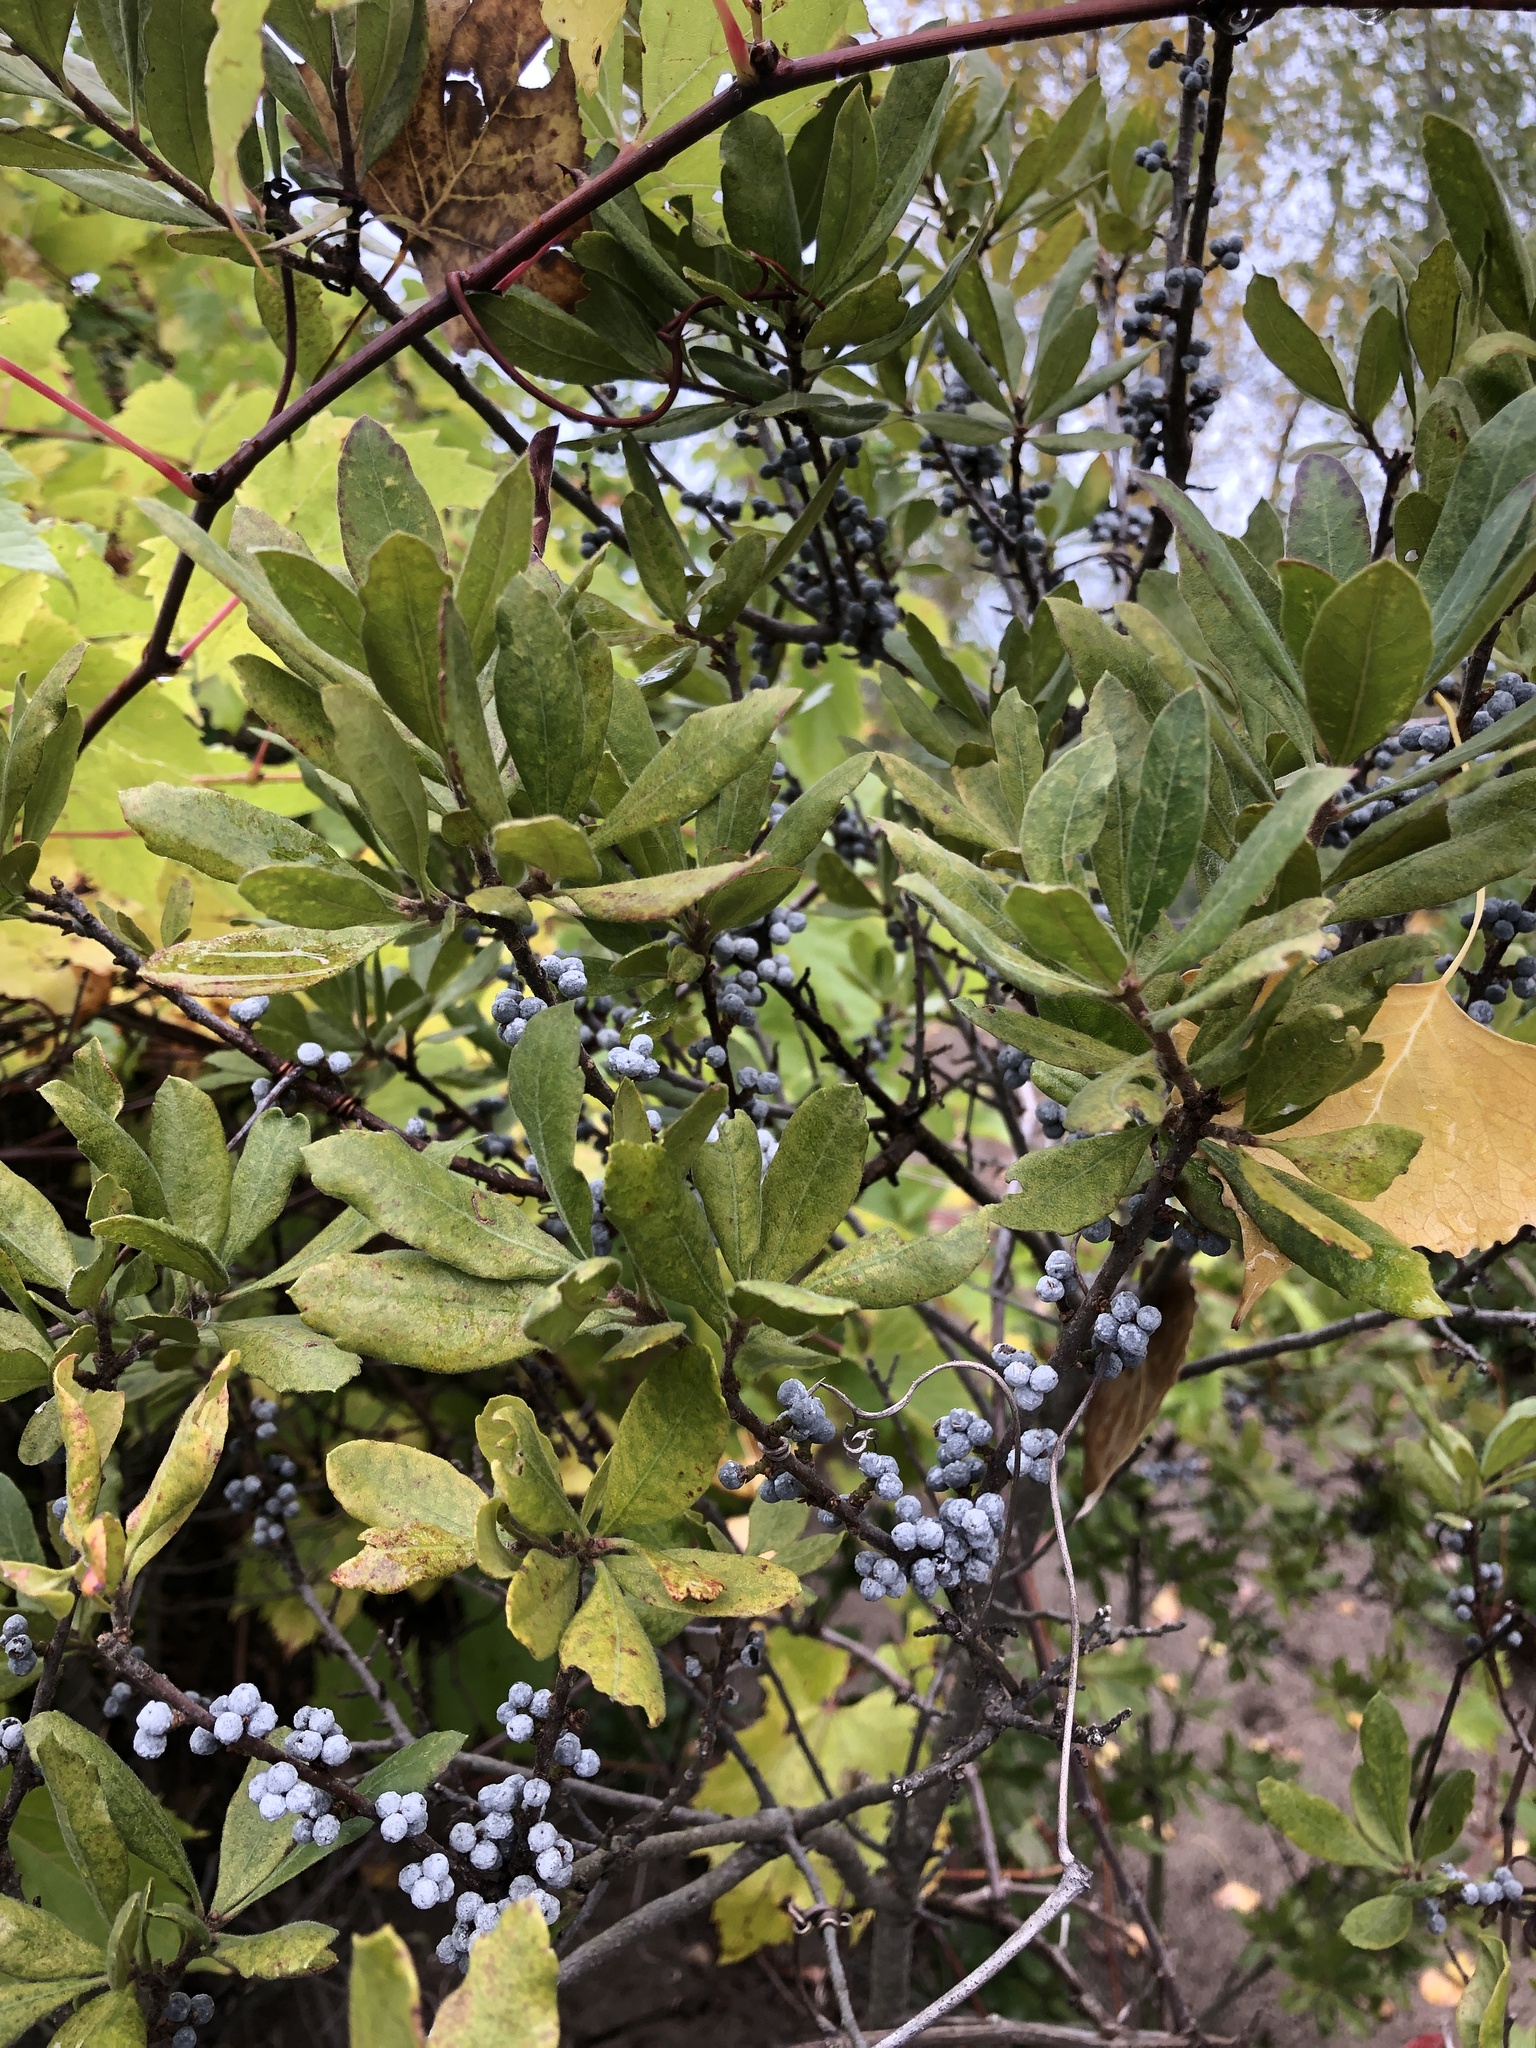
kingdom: Plantae
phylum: Tracheophyta
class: Magnoliopsida
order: Fagales
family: Myricaceae
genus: Morella
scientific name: Morella pensylvanica
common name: Northern bayberry
